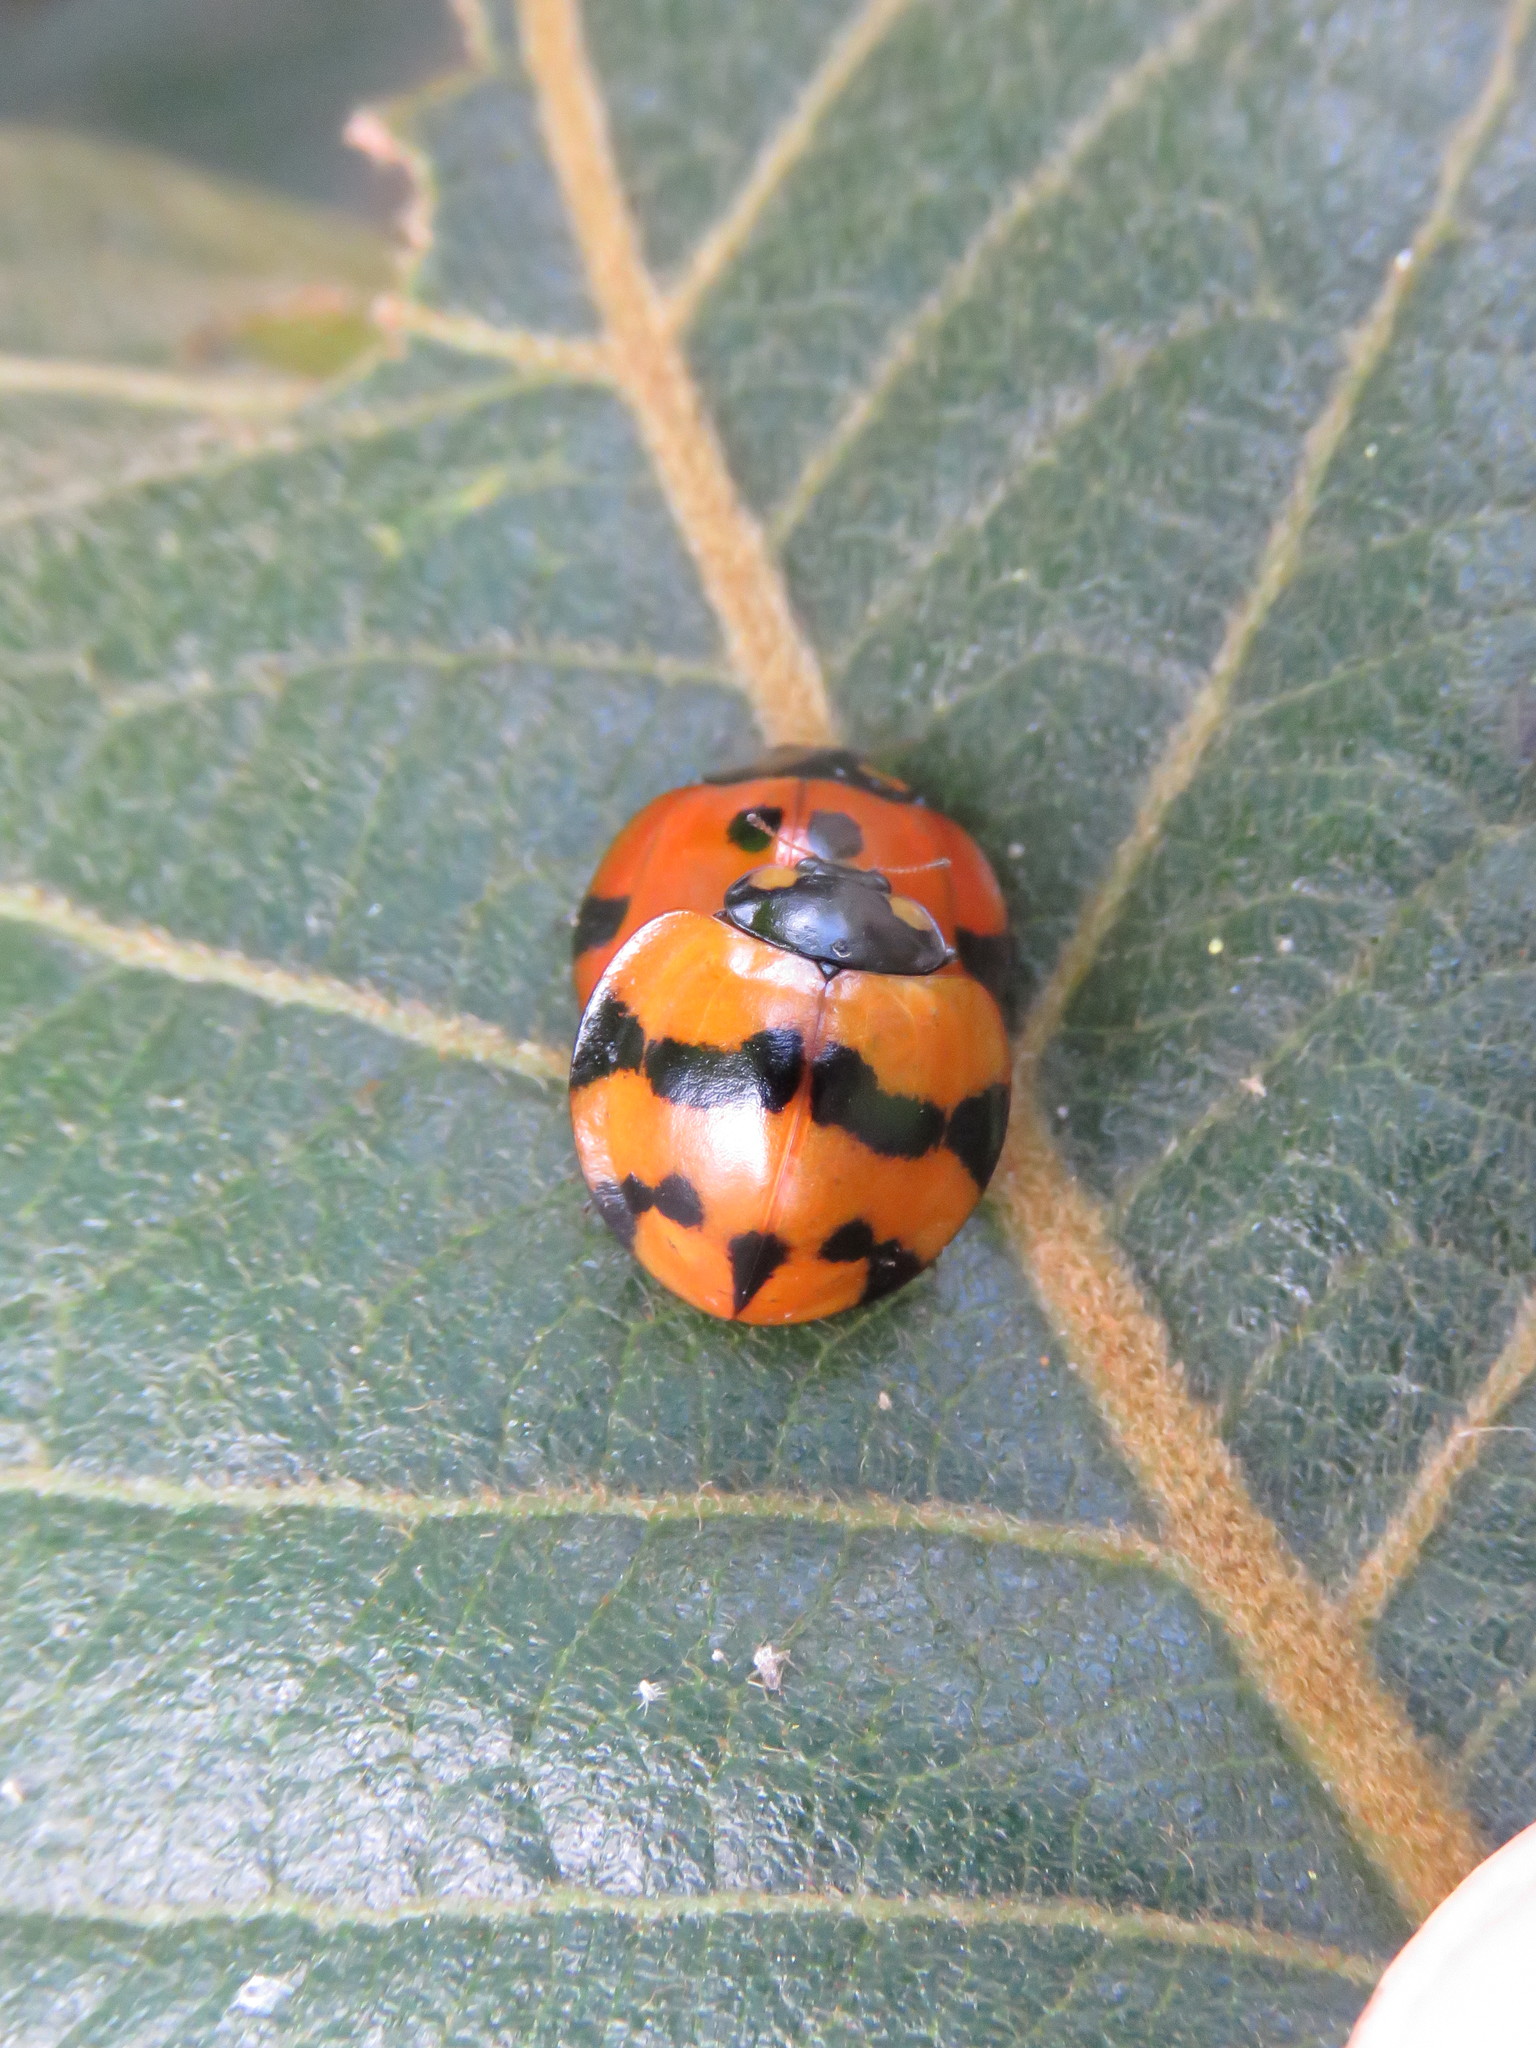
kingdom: Animalia
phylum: Arthropoda
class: Insecta
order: Coleoptera
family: Coccinellidae
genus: Neda
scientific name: Neda norrisi
